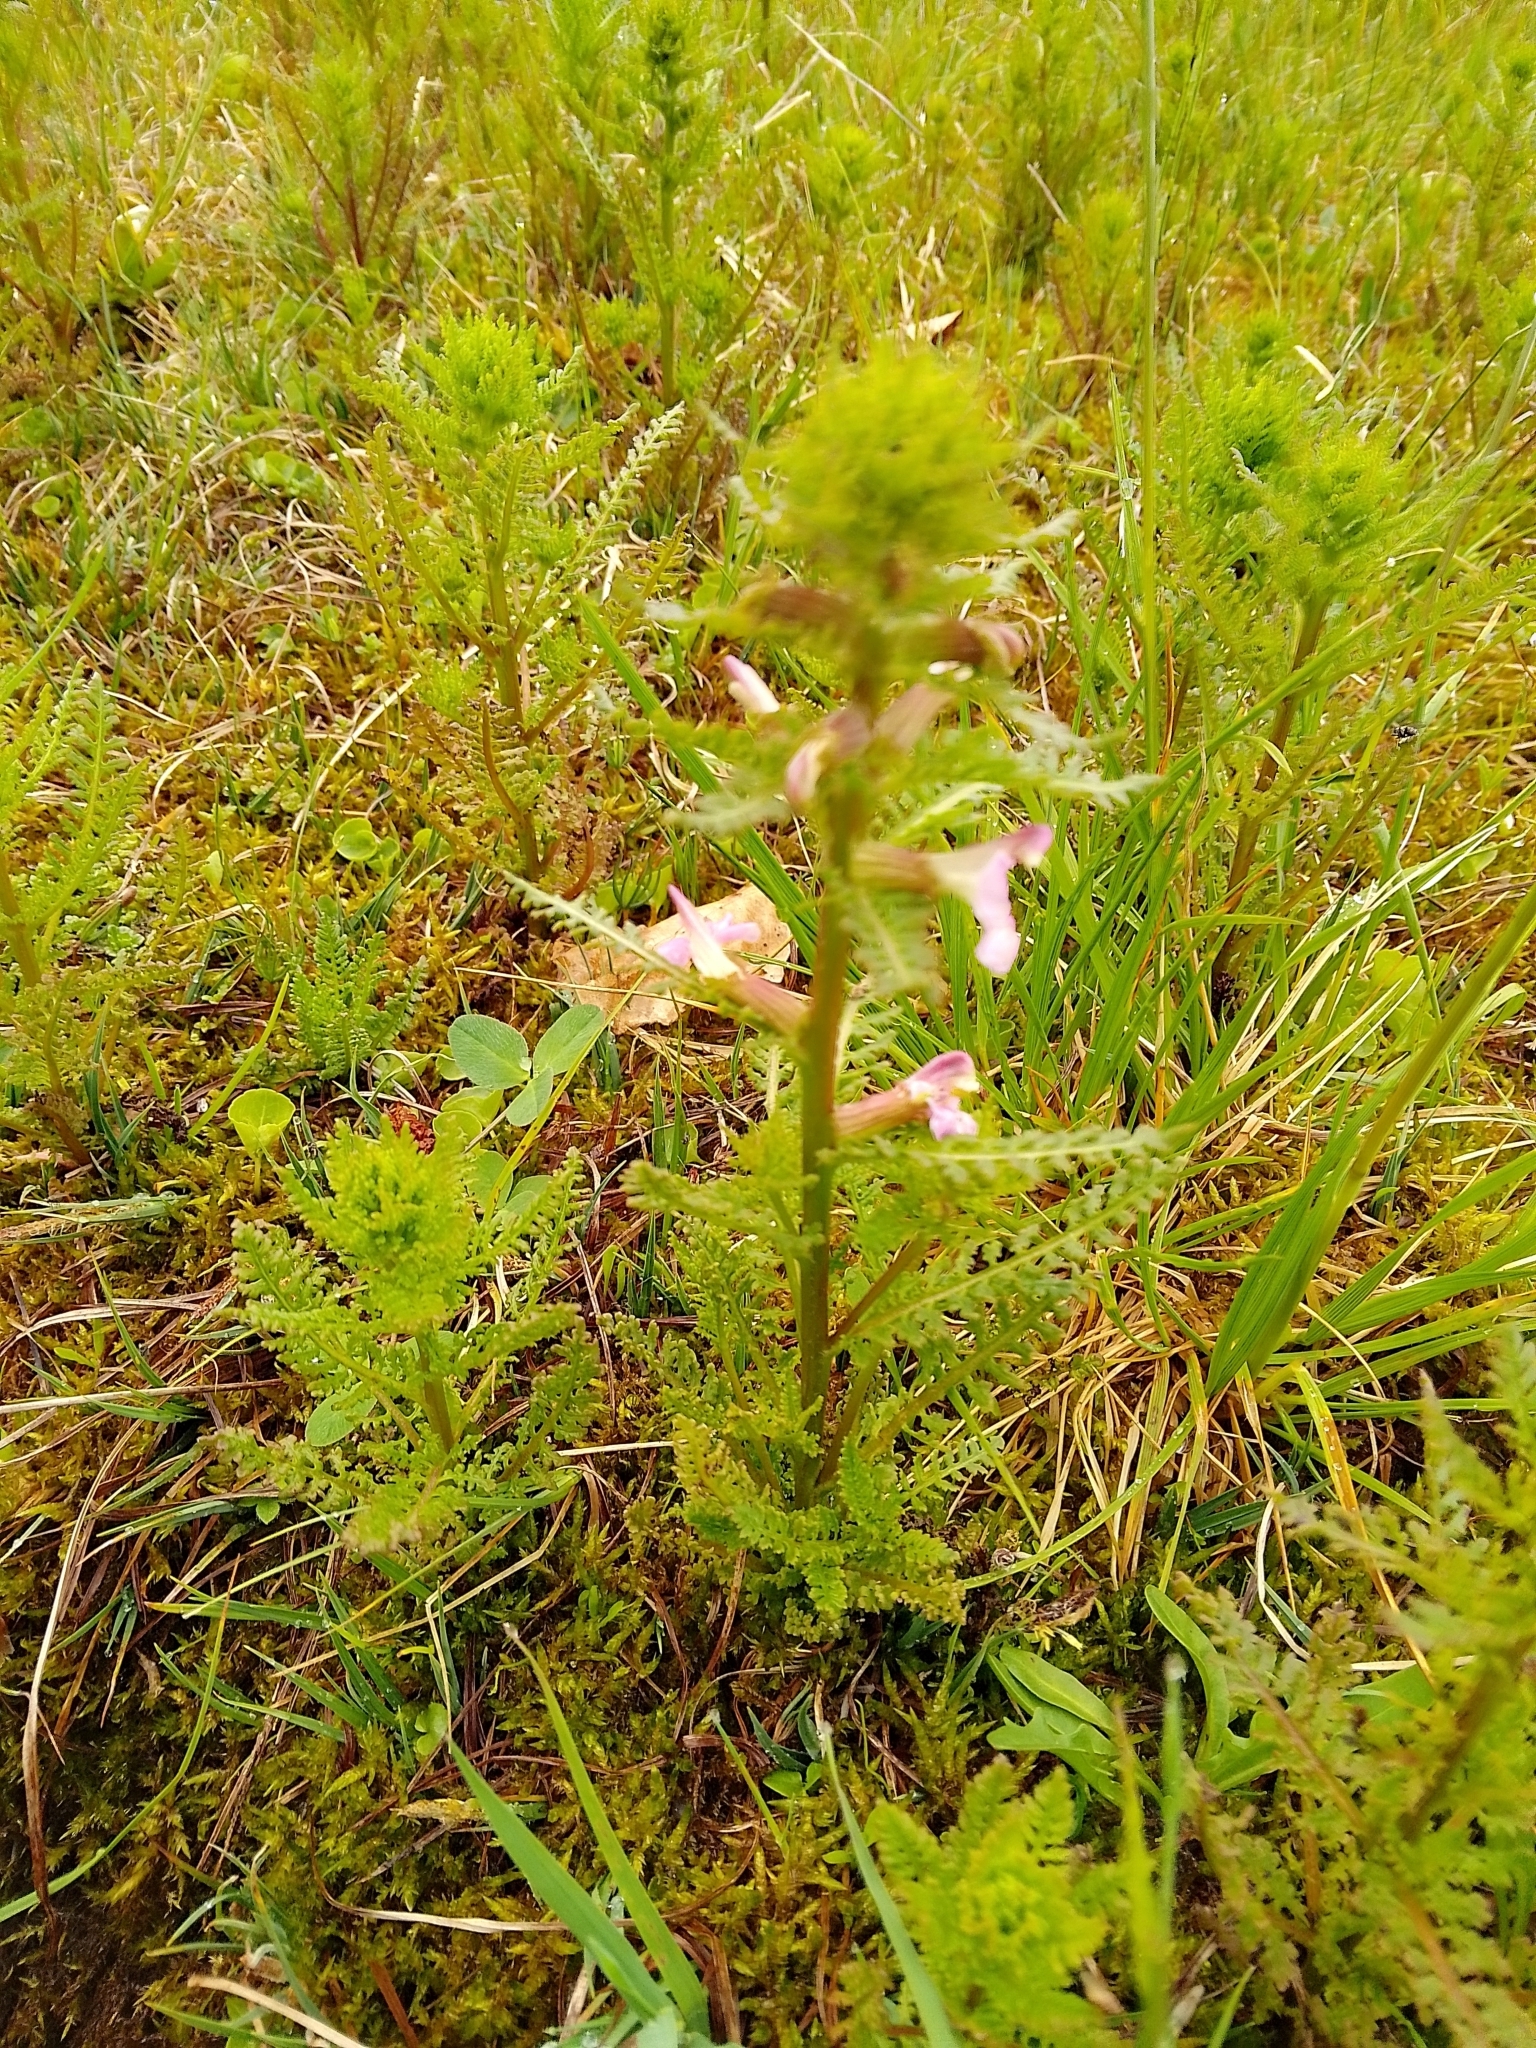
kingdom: Plantae
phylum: Tracheophyta
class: Magnoliopsida
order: Lamiales
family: Orobanchaceae
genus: Pedicularis
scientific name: Pedicularis palustris
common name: Marsh lousewort
